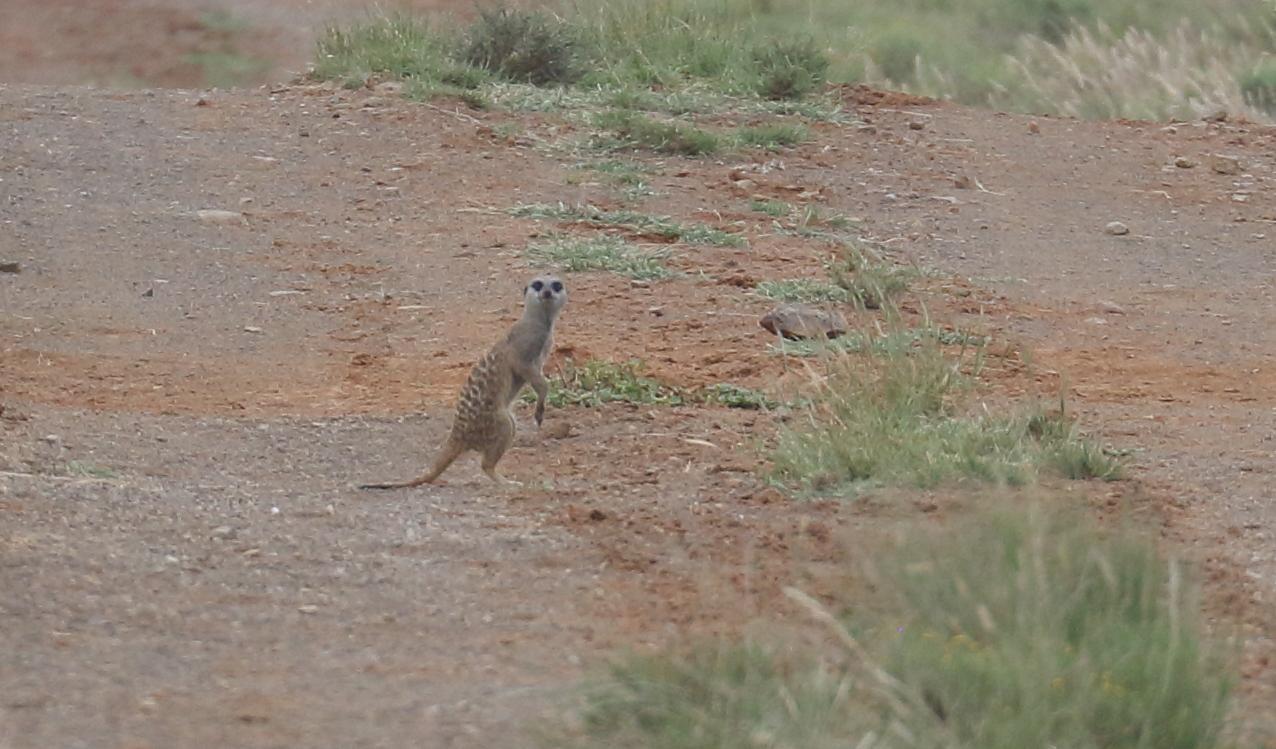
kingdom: Animalia
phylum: Chordata
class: Mammalia
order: Carnivora
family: Herpestidae
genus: Suricata
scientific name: Suricata suricatta
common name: Meerkat
